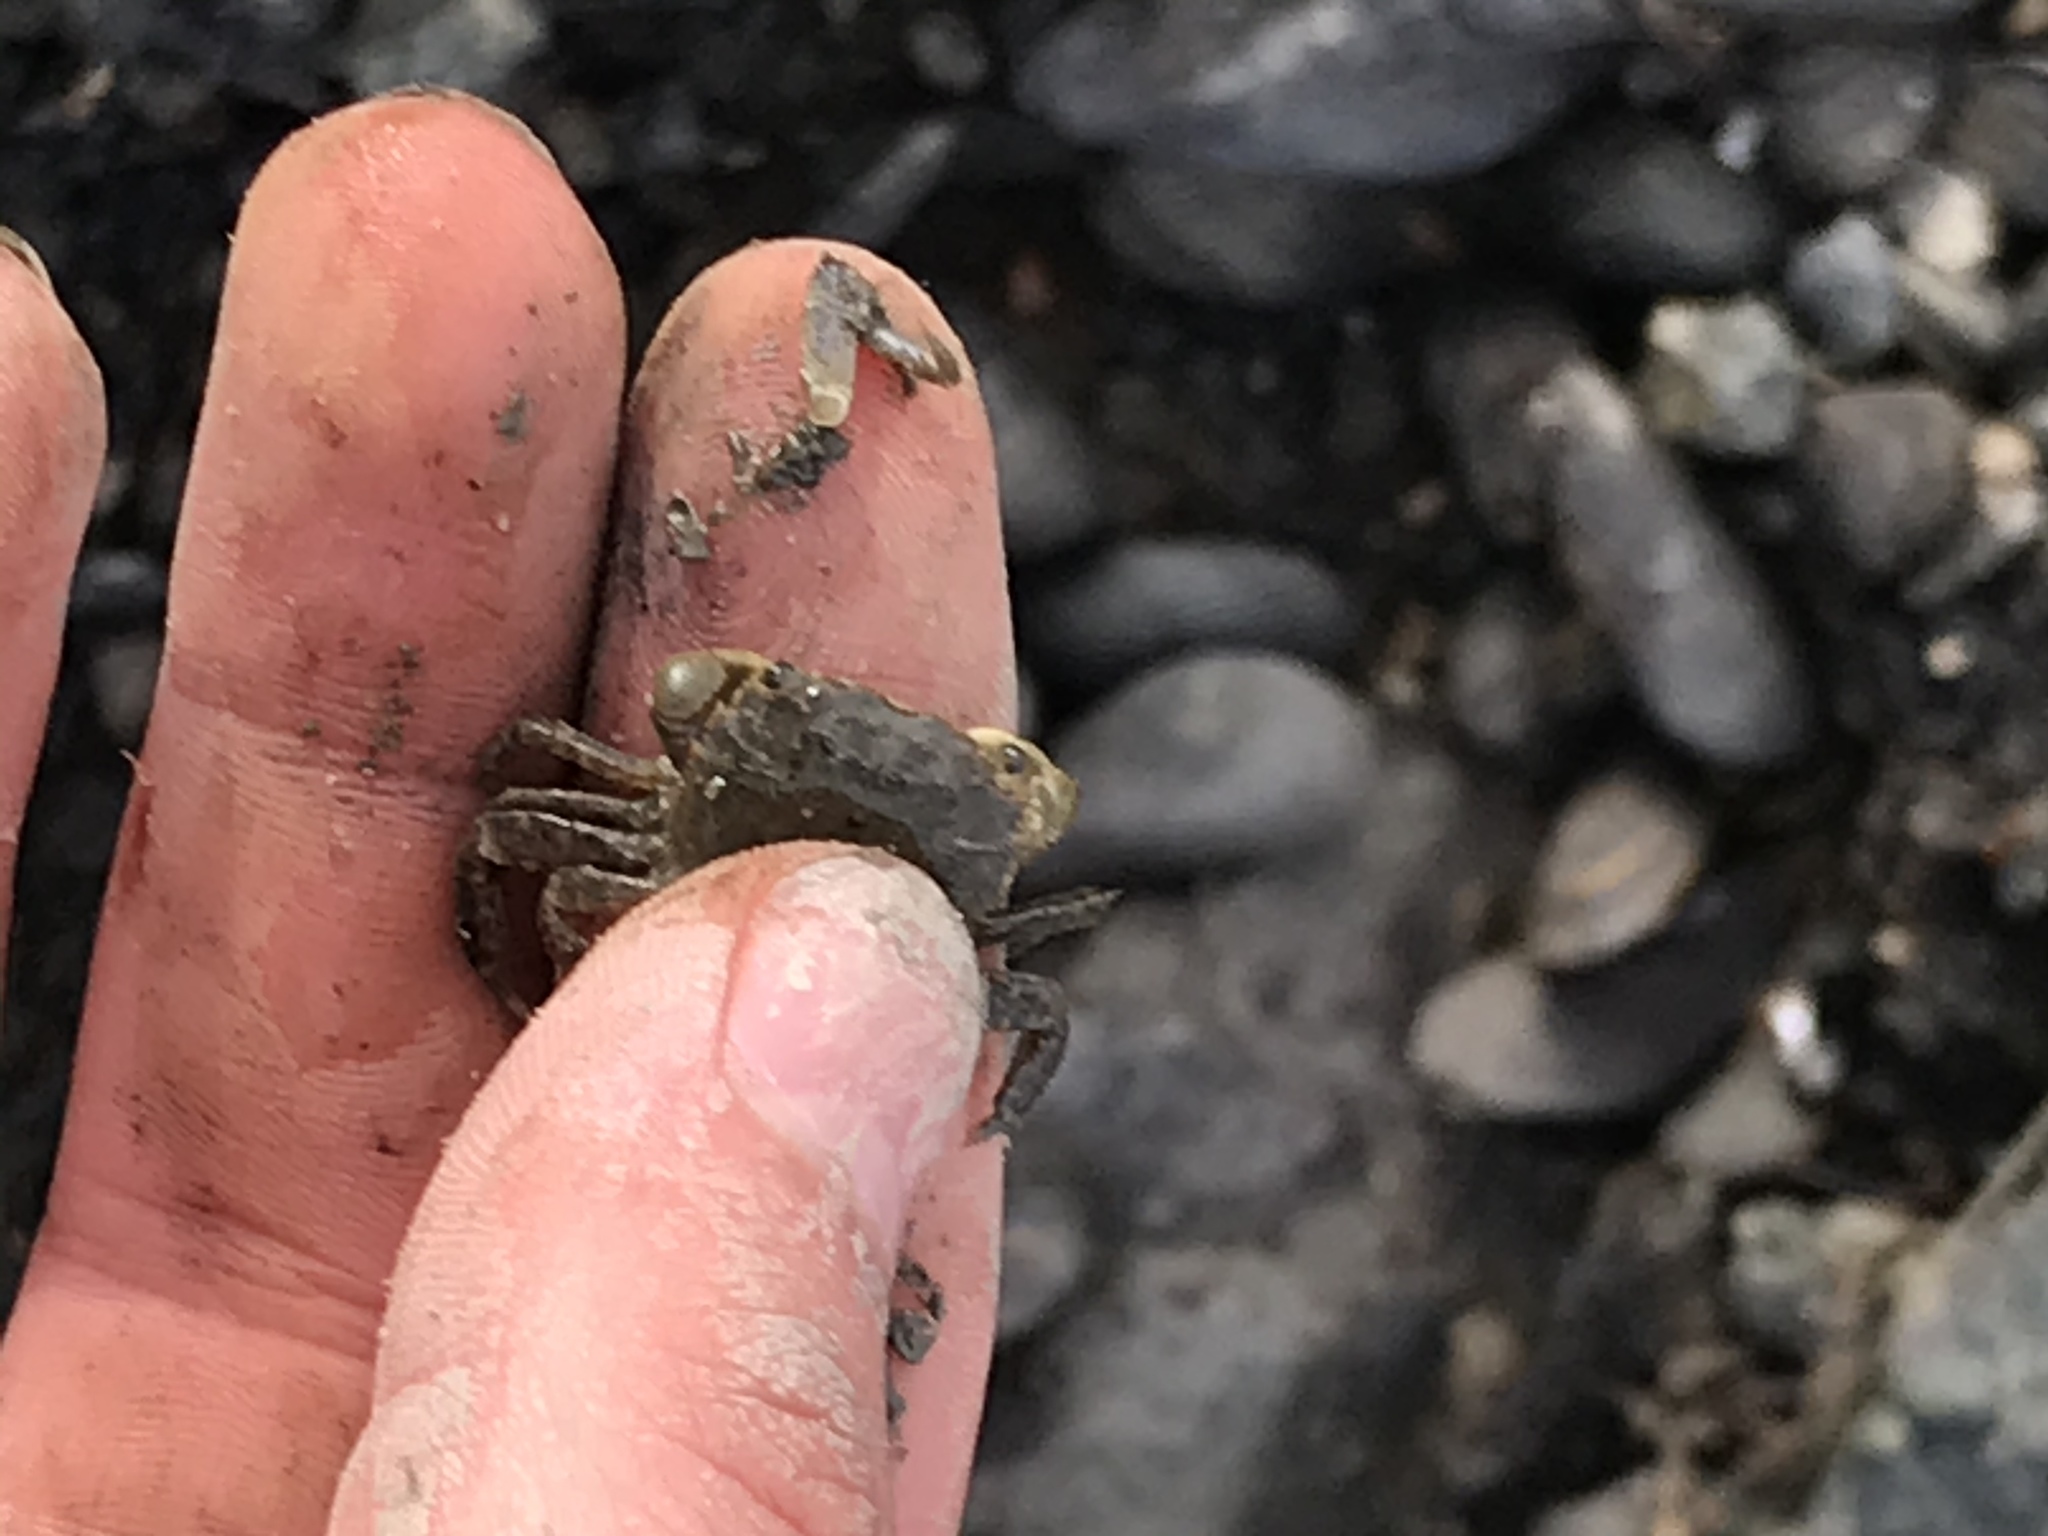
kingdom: Animalia
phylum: Arthropoda
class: Malacostraca
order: Decapoda
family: Varunidae
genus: Hemigrapsus
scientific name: Hemigrapsus oregonensis
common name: Yellow shore crab
